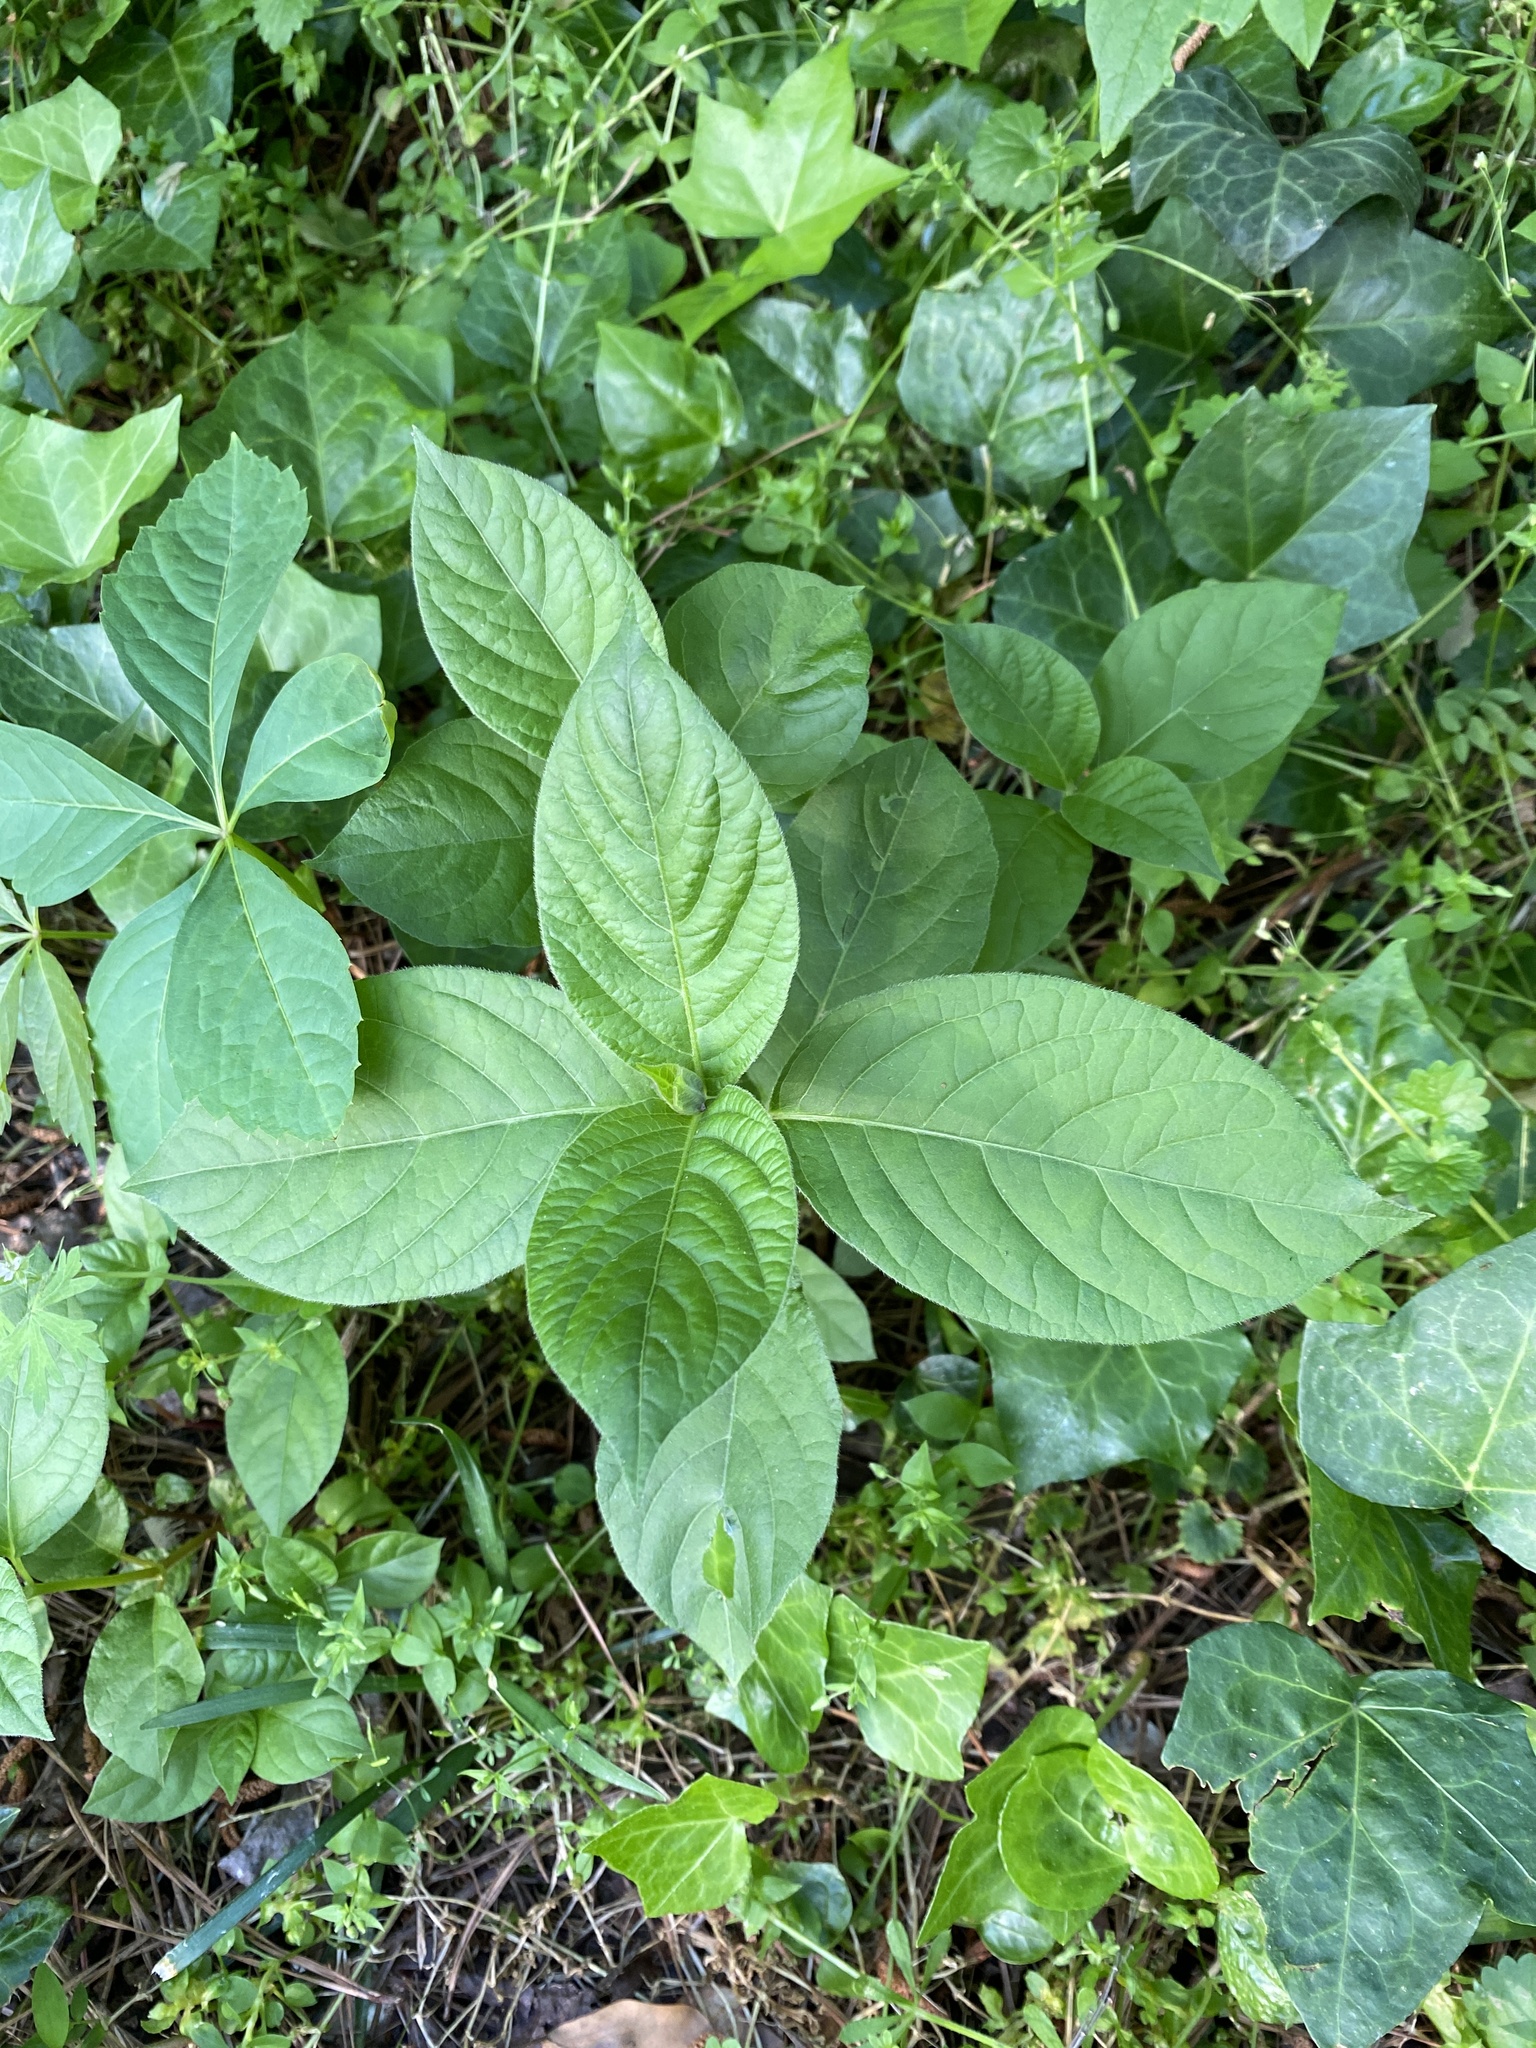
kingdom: Plantae
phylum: Tracheophyta
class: Magnoliopsida
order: Caryophyllales
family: Amaranthaceae
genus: Achyranthes
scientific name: Achyranthes bidentata
